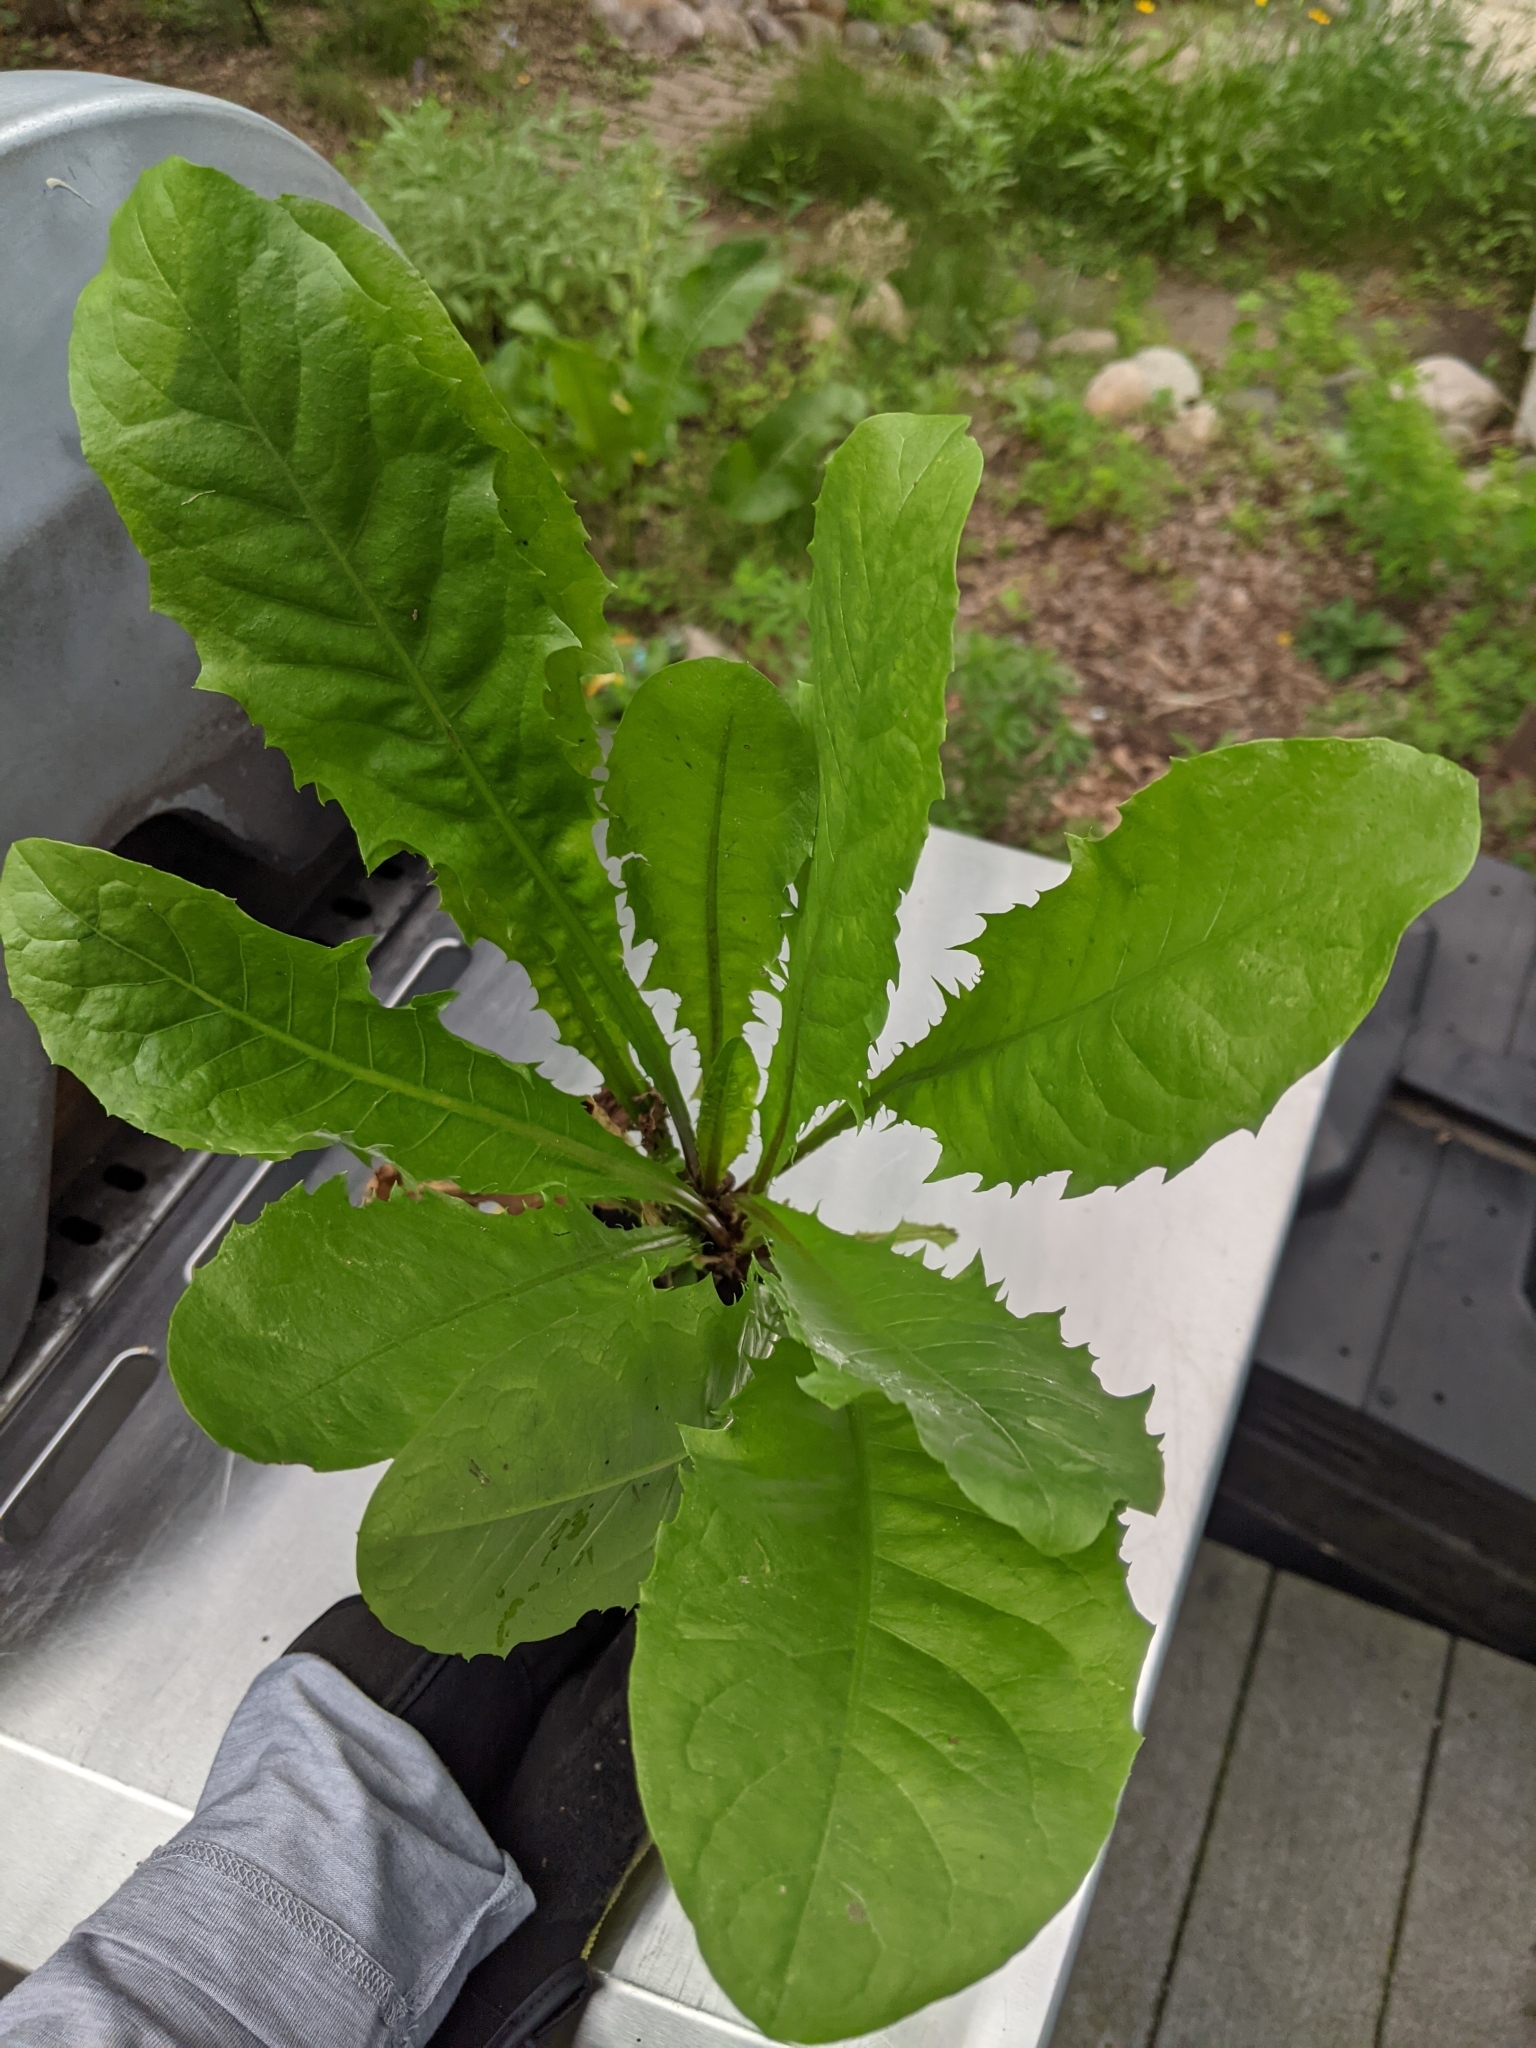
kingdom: Plantae
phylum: Tracheophyta
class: Magnoliopsida
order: Asterales
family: Asteraceae
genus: Taraxacum
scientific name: Taraxacum officinale
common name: Common dandelion
